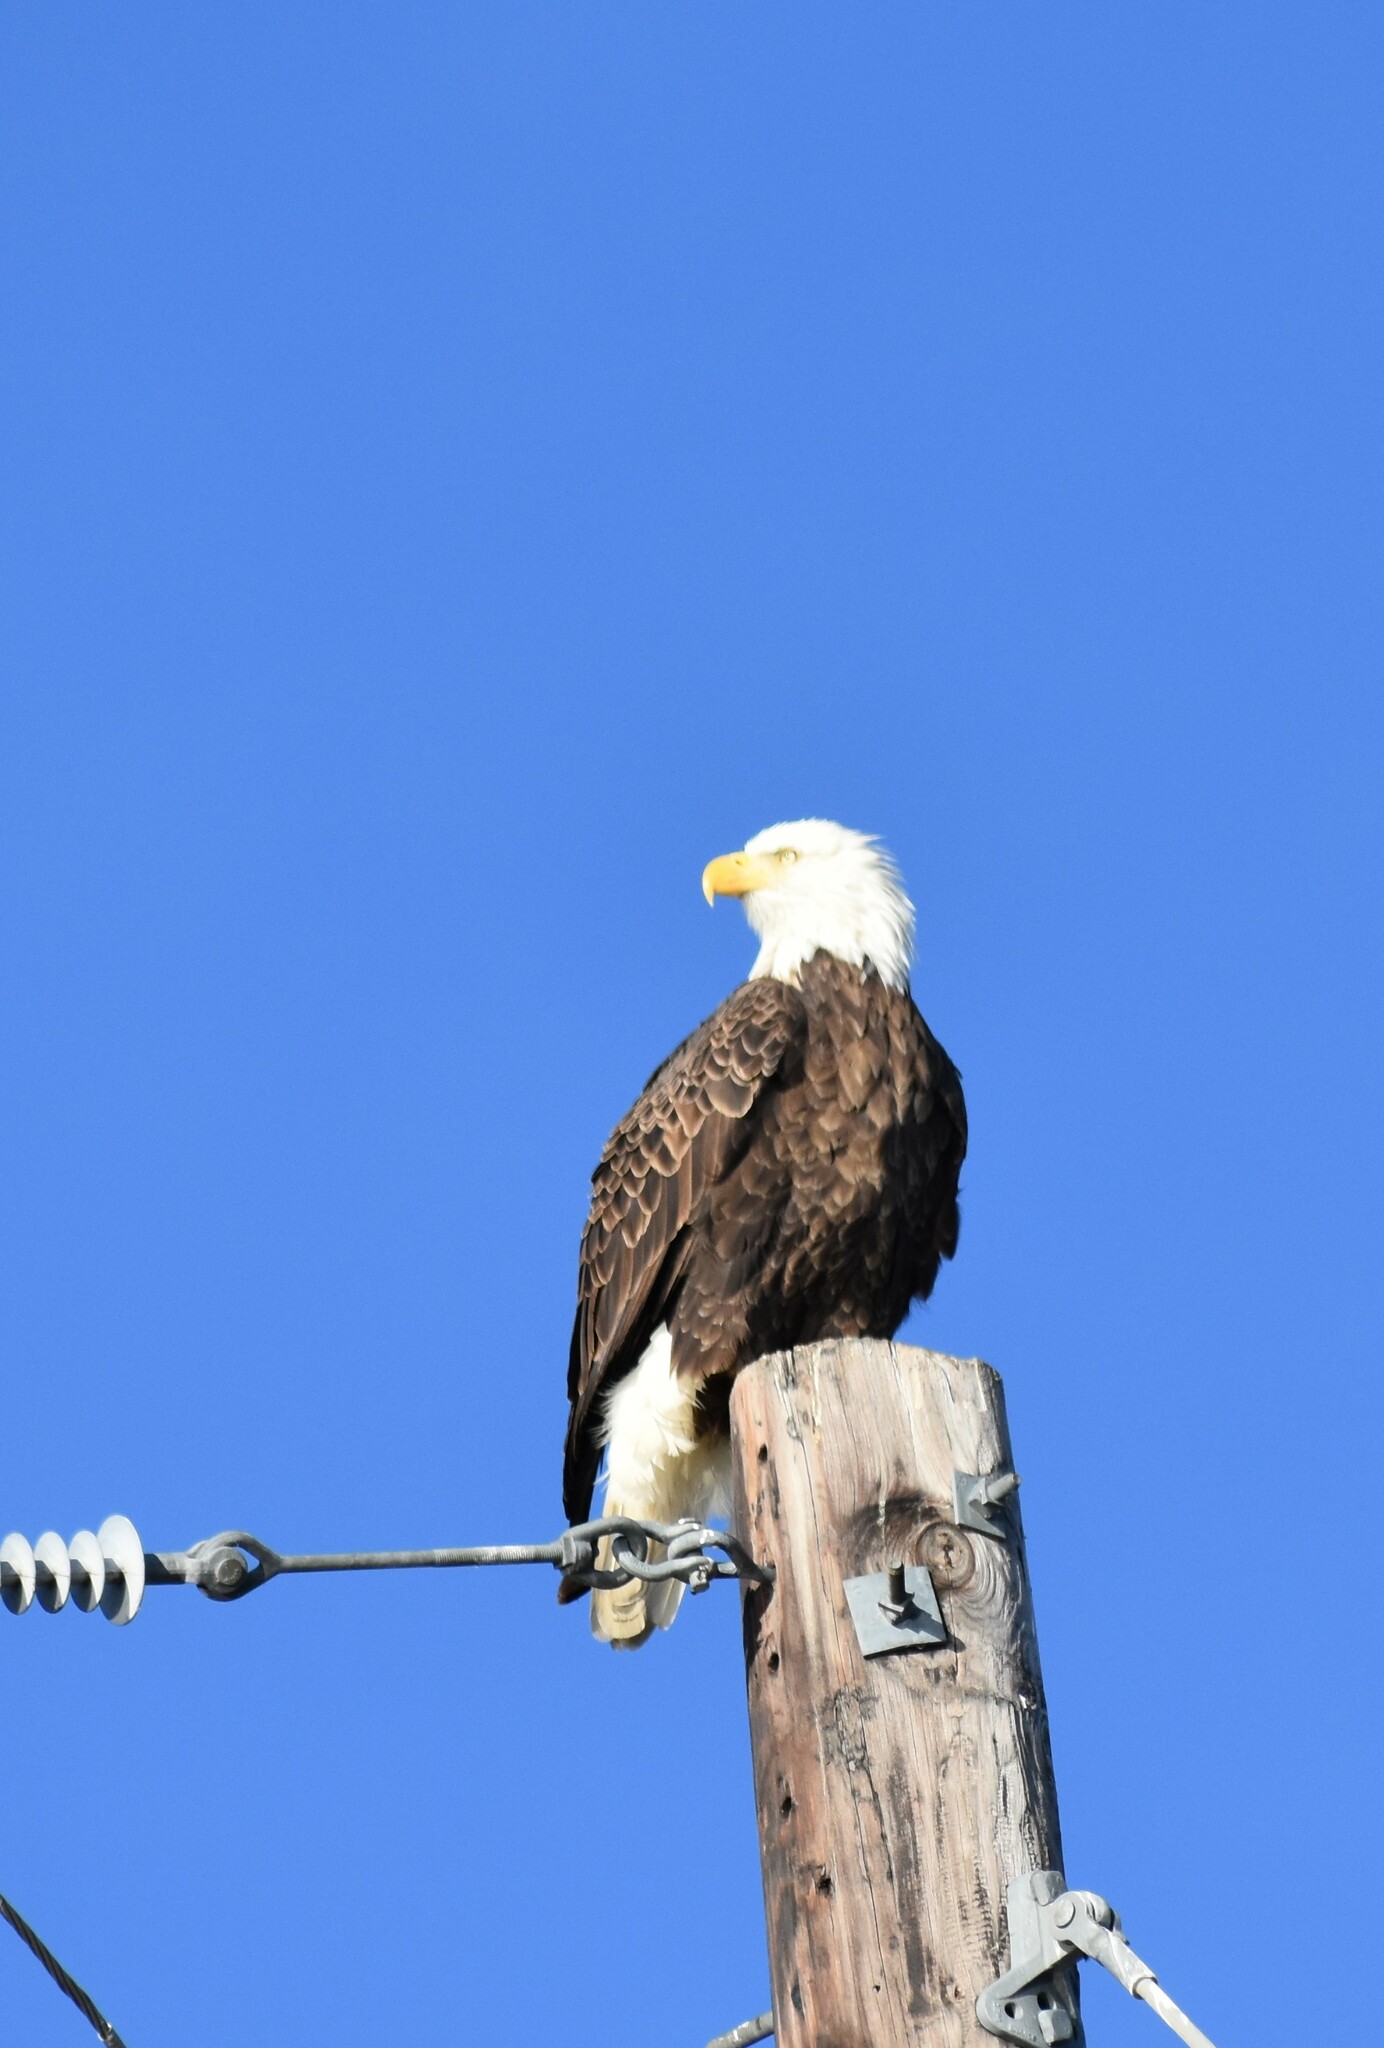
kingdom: Animalia
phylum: Chordata
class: Aves
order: Accipitriformes
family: Accipitridae
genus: Haliaeetus
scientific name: Haliaeetus leucocephalus
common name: Bald eagle
